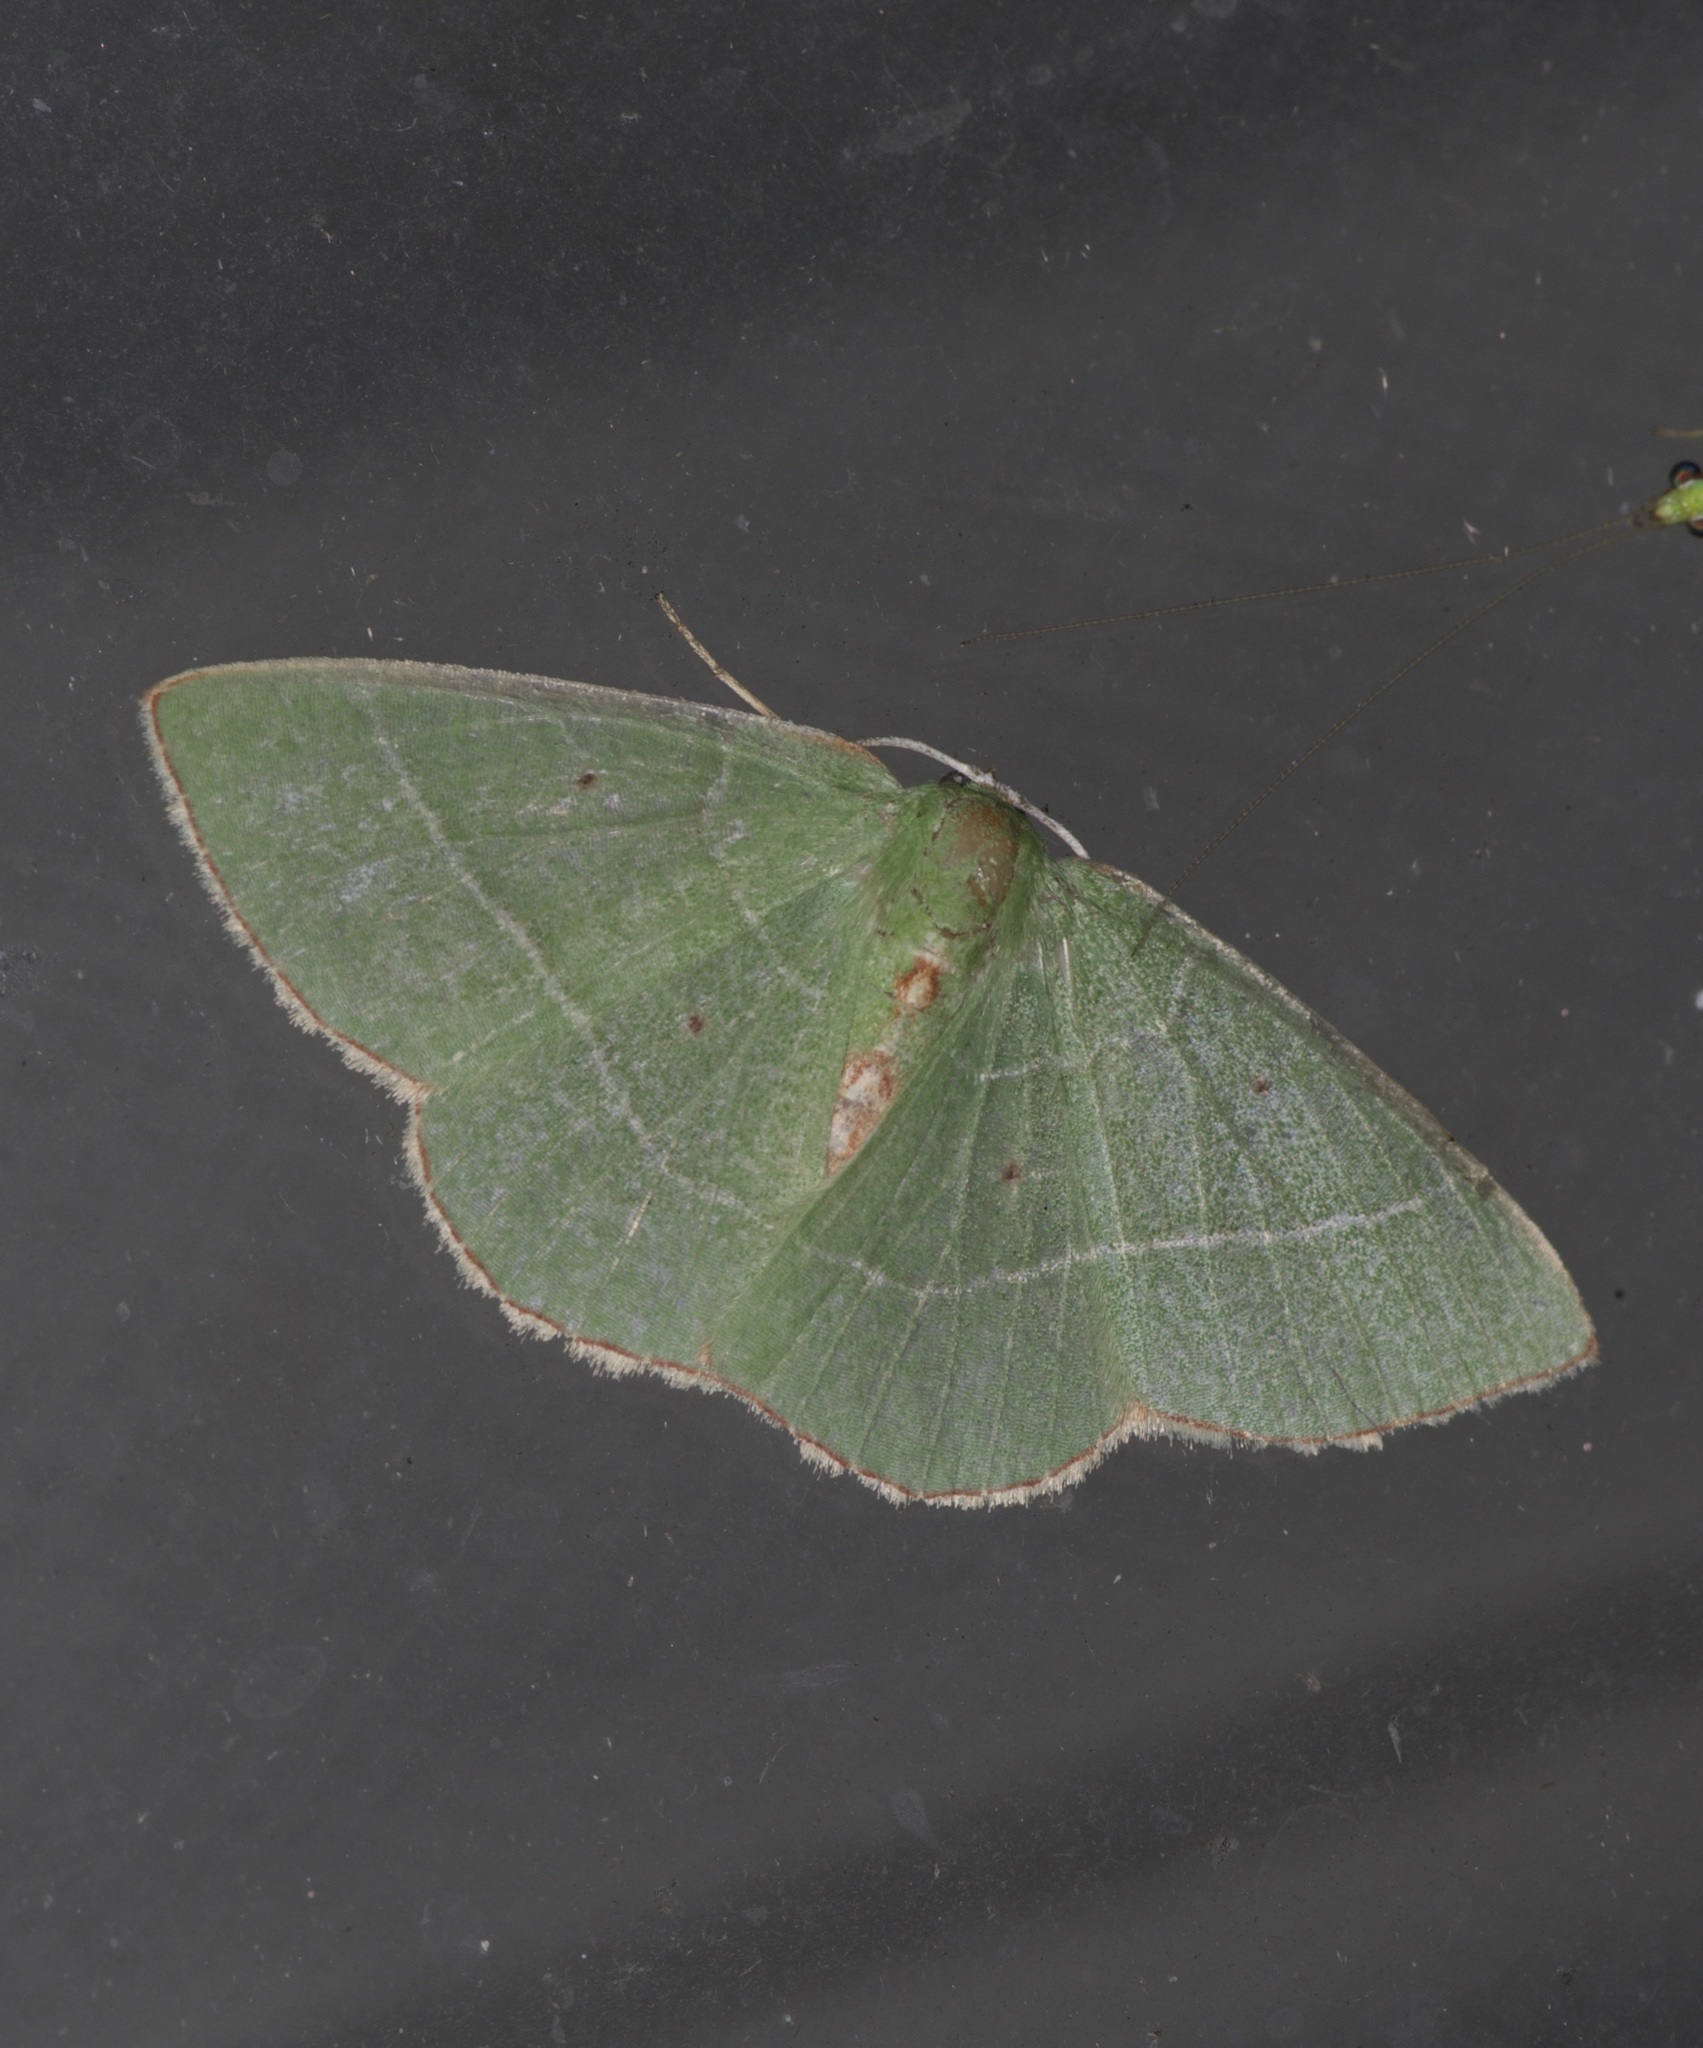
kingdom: Animalia
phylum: Arthropoda
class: Insecta
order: Lepidoptera
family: Geometridae
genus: Nemoria
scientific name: Nemoria bifilata
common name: White-barred emerald moth
